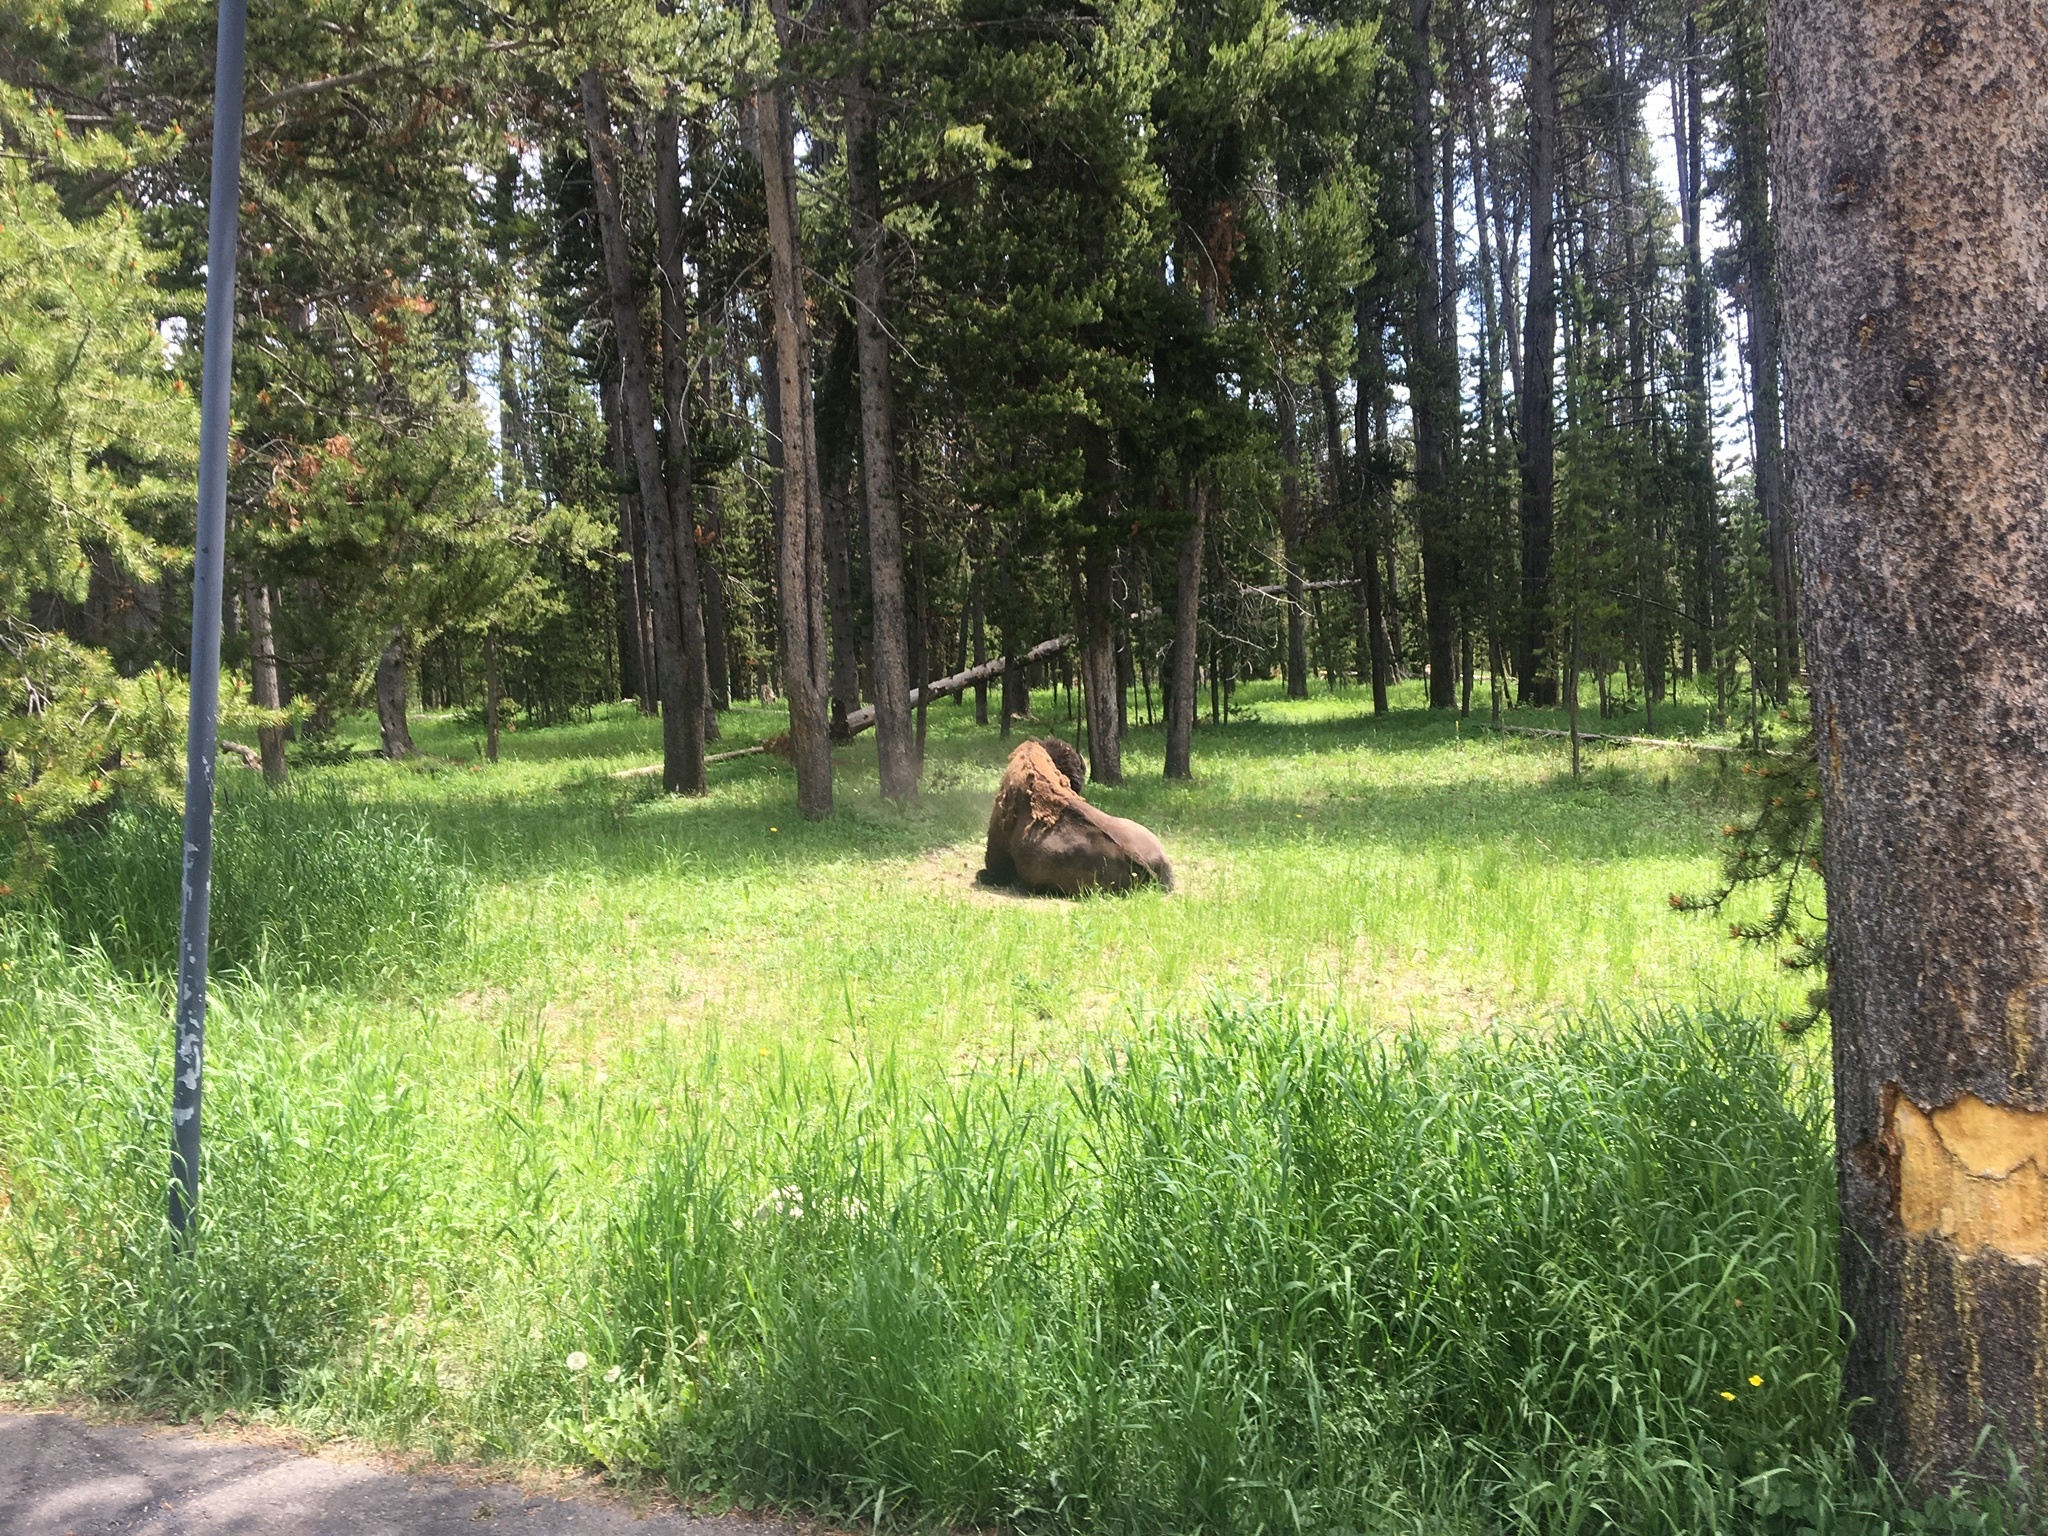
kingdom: Animalia
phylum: Chordata
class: Mammalia
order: Artiodactyla
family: Bovidae
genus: Bison
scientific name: Bison bison
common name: American bison
